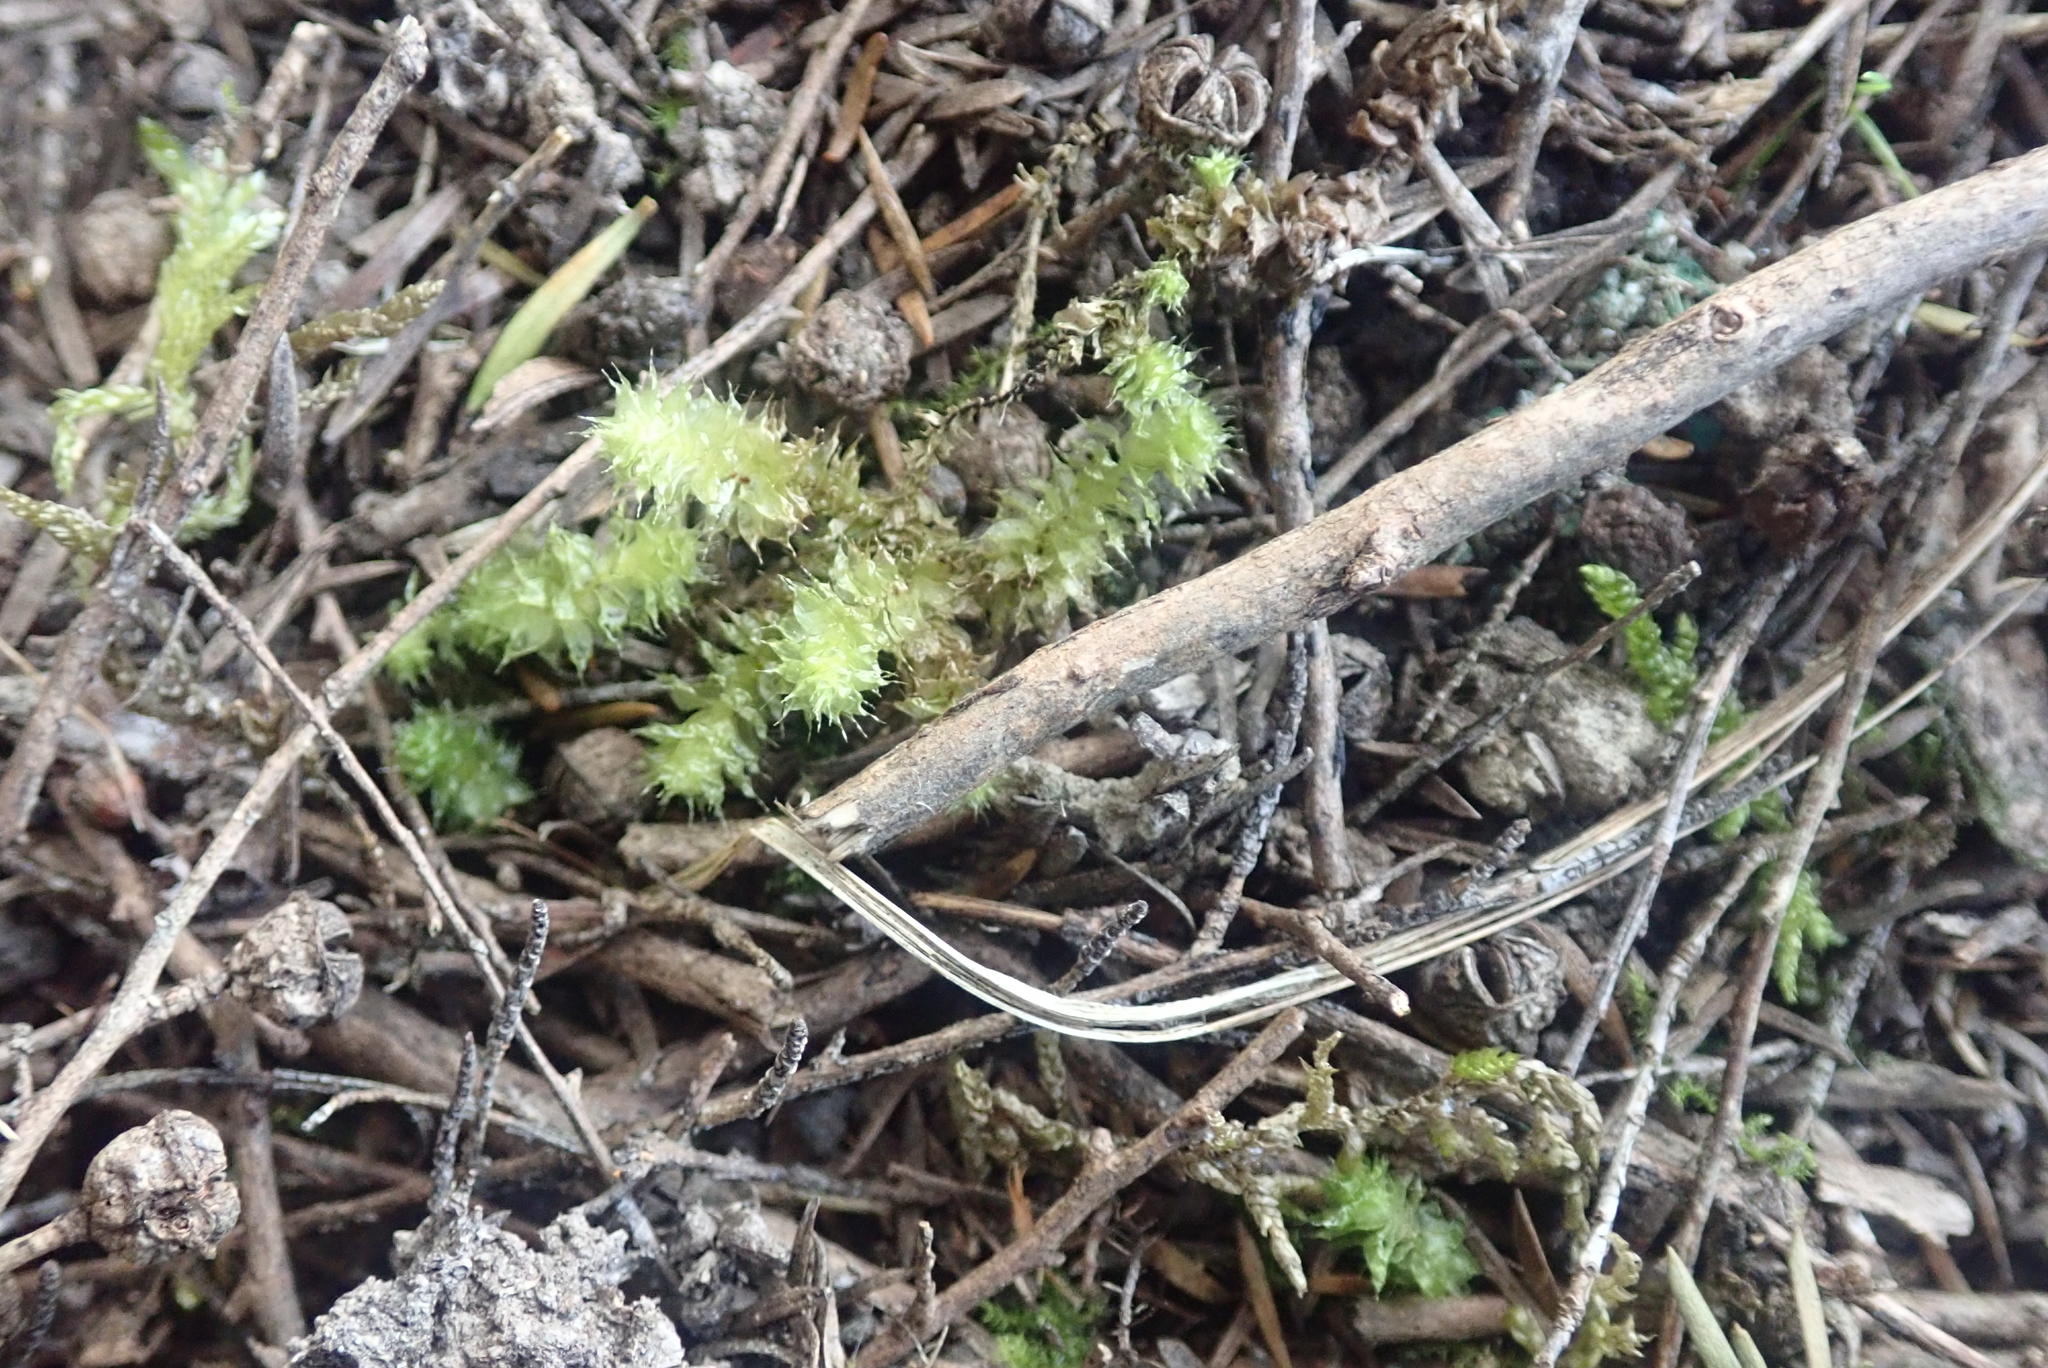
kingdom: Plantae
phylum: Bryophyta
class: Bryopsida
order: Ptychomniales
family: Ptychomniaceae
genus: Ptychomnion
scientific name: Ptychomnion aciculare
